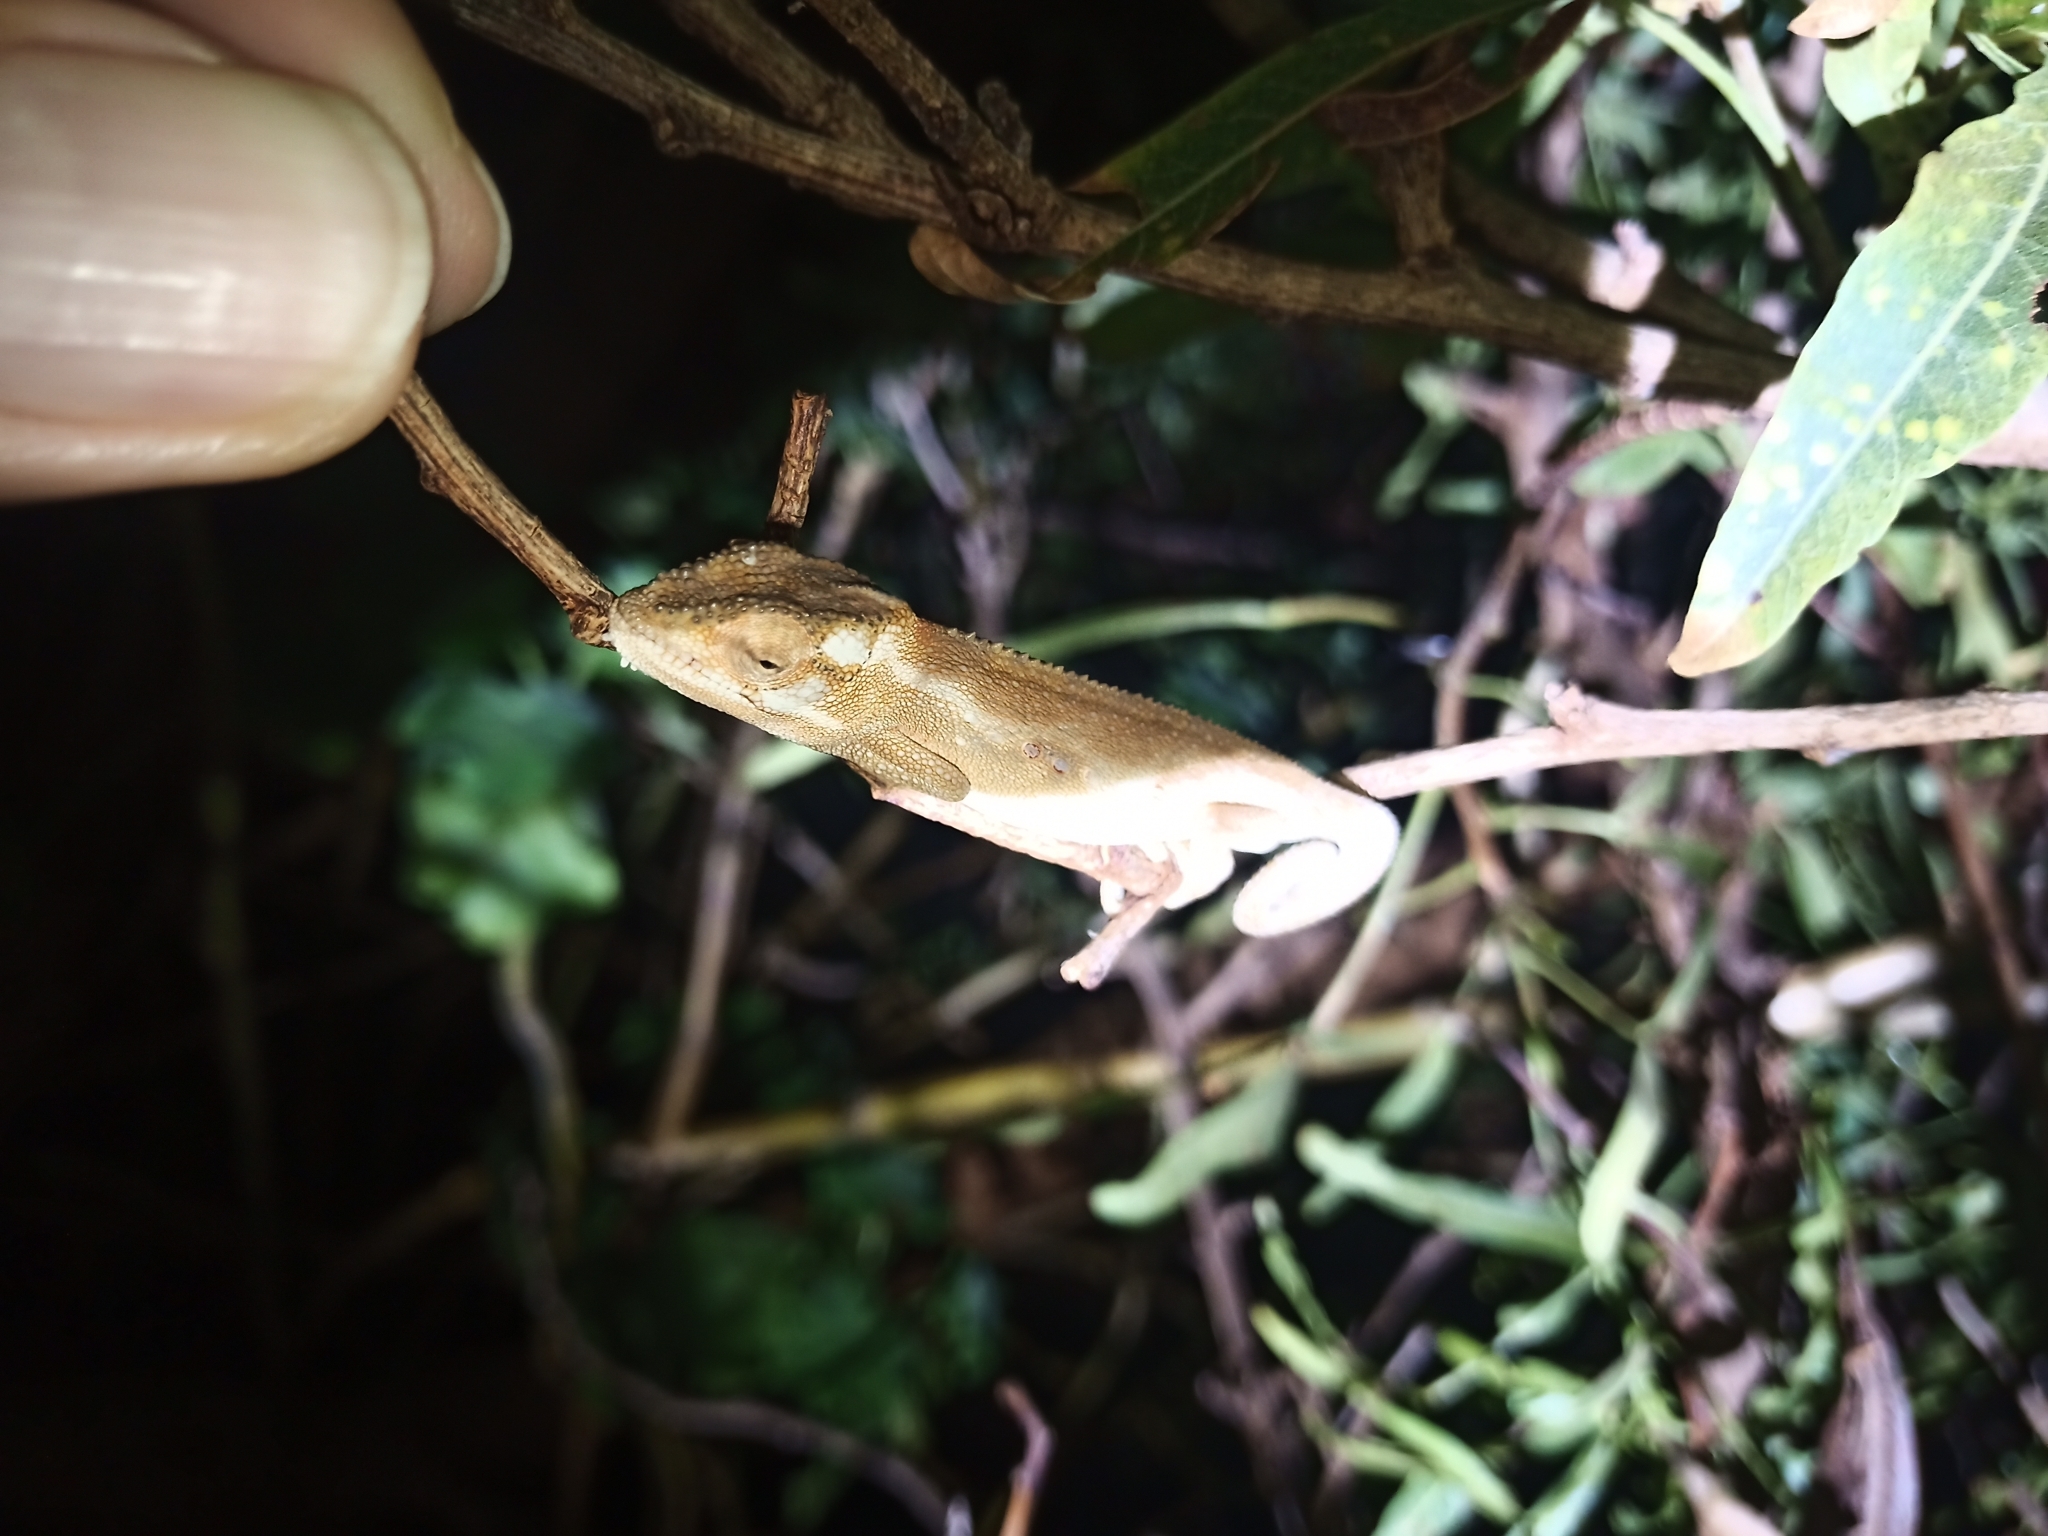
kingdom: Animalia
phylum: Chordata
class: Squamata
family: Chamaeleonidae
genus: Bradypodion
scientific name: Bradypodion pumilum
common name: Cape dwarf chameleon
